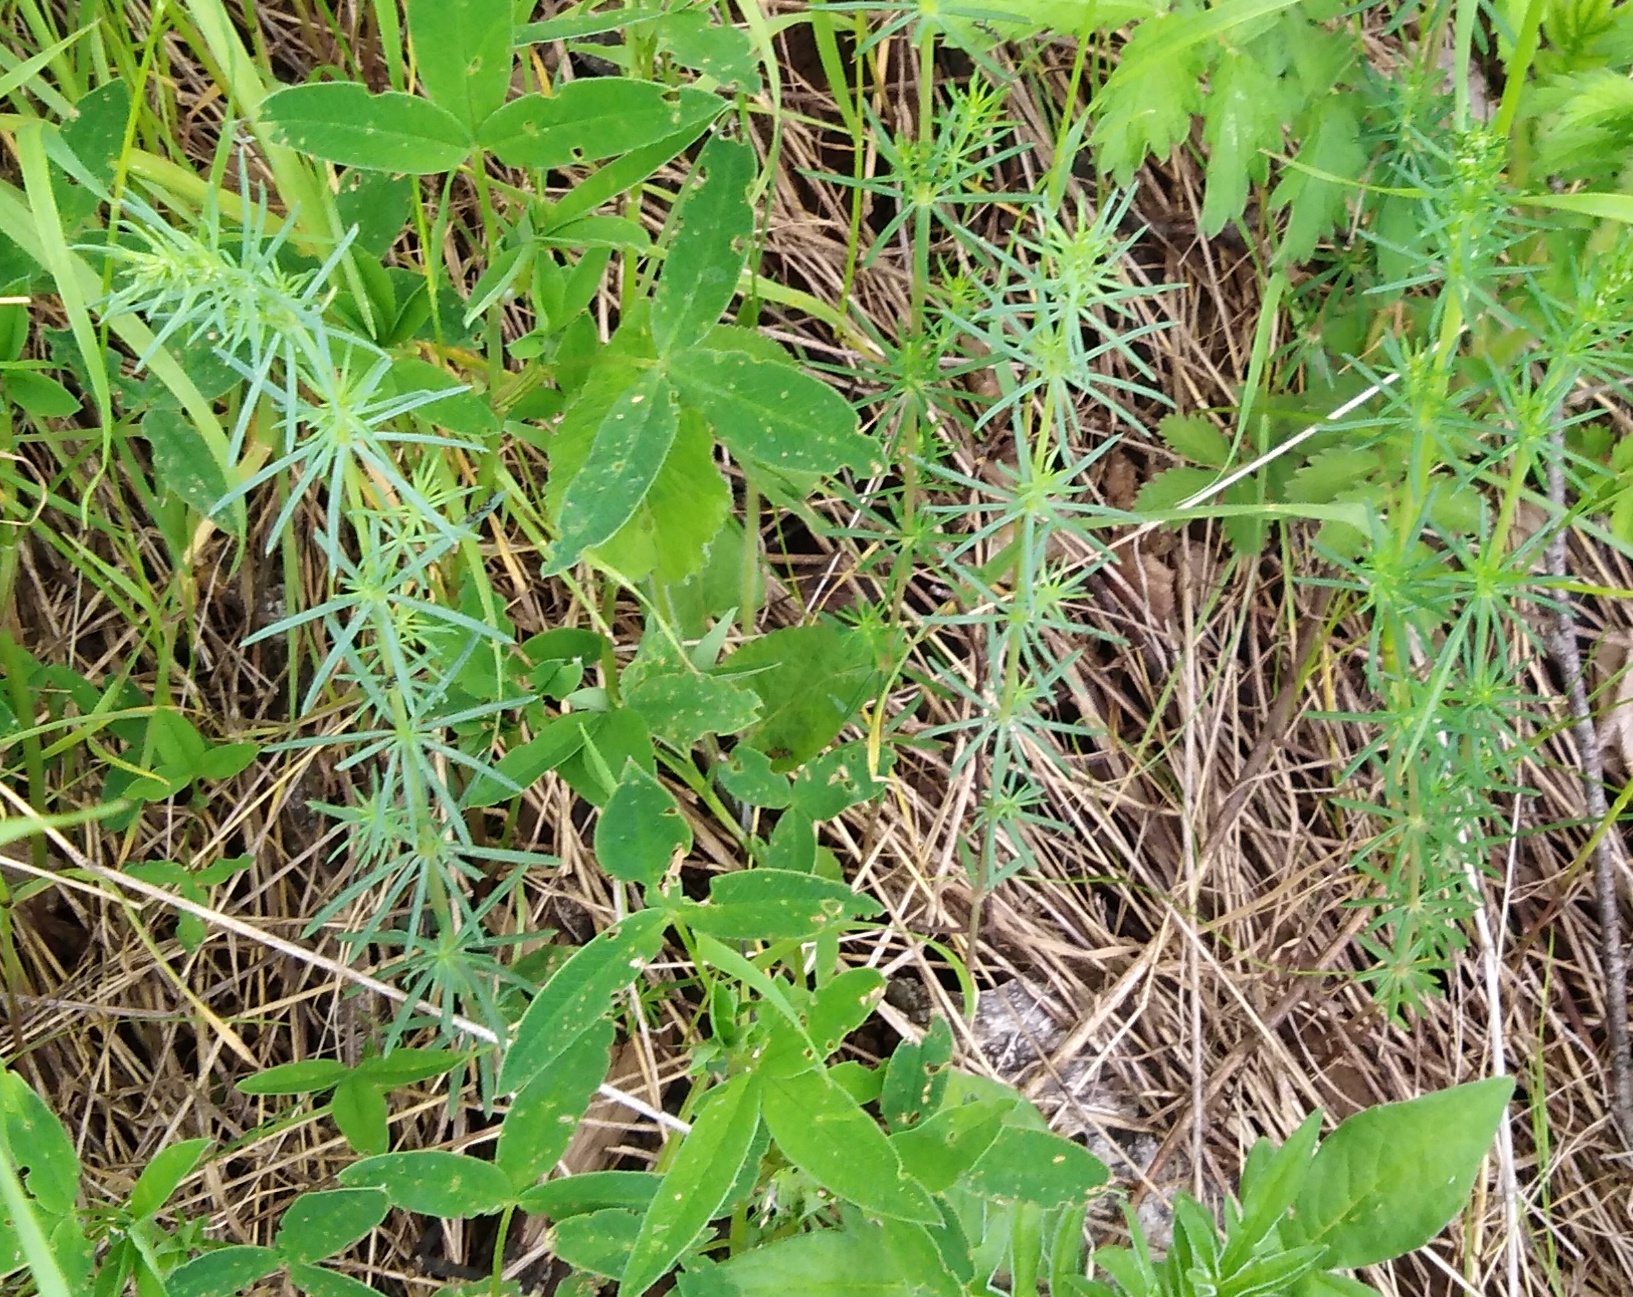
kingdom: Plantae
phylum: Tracheophyta
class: Magnoliopsida
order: Gentianales
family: Rubiaceae
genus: Galium
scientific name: Galium verum
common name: Lady's bedstraw
